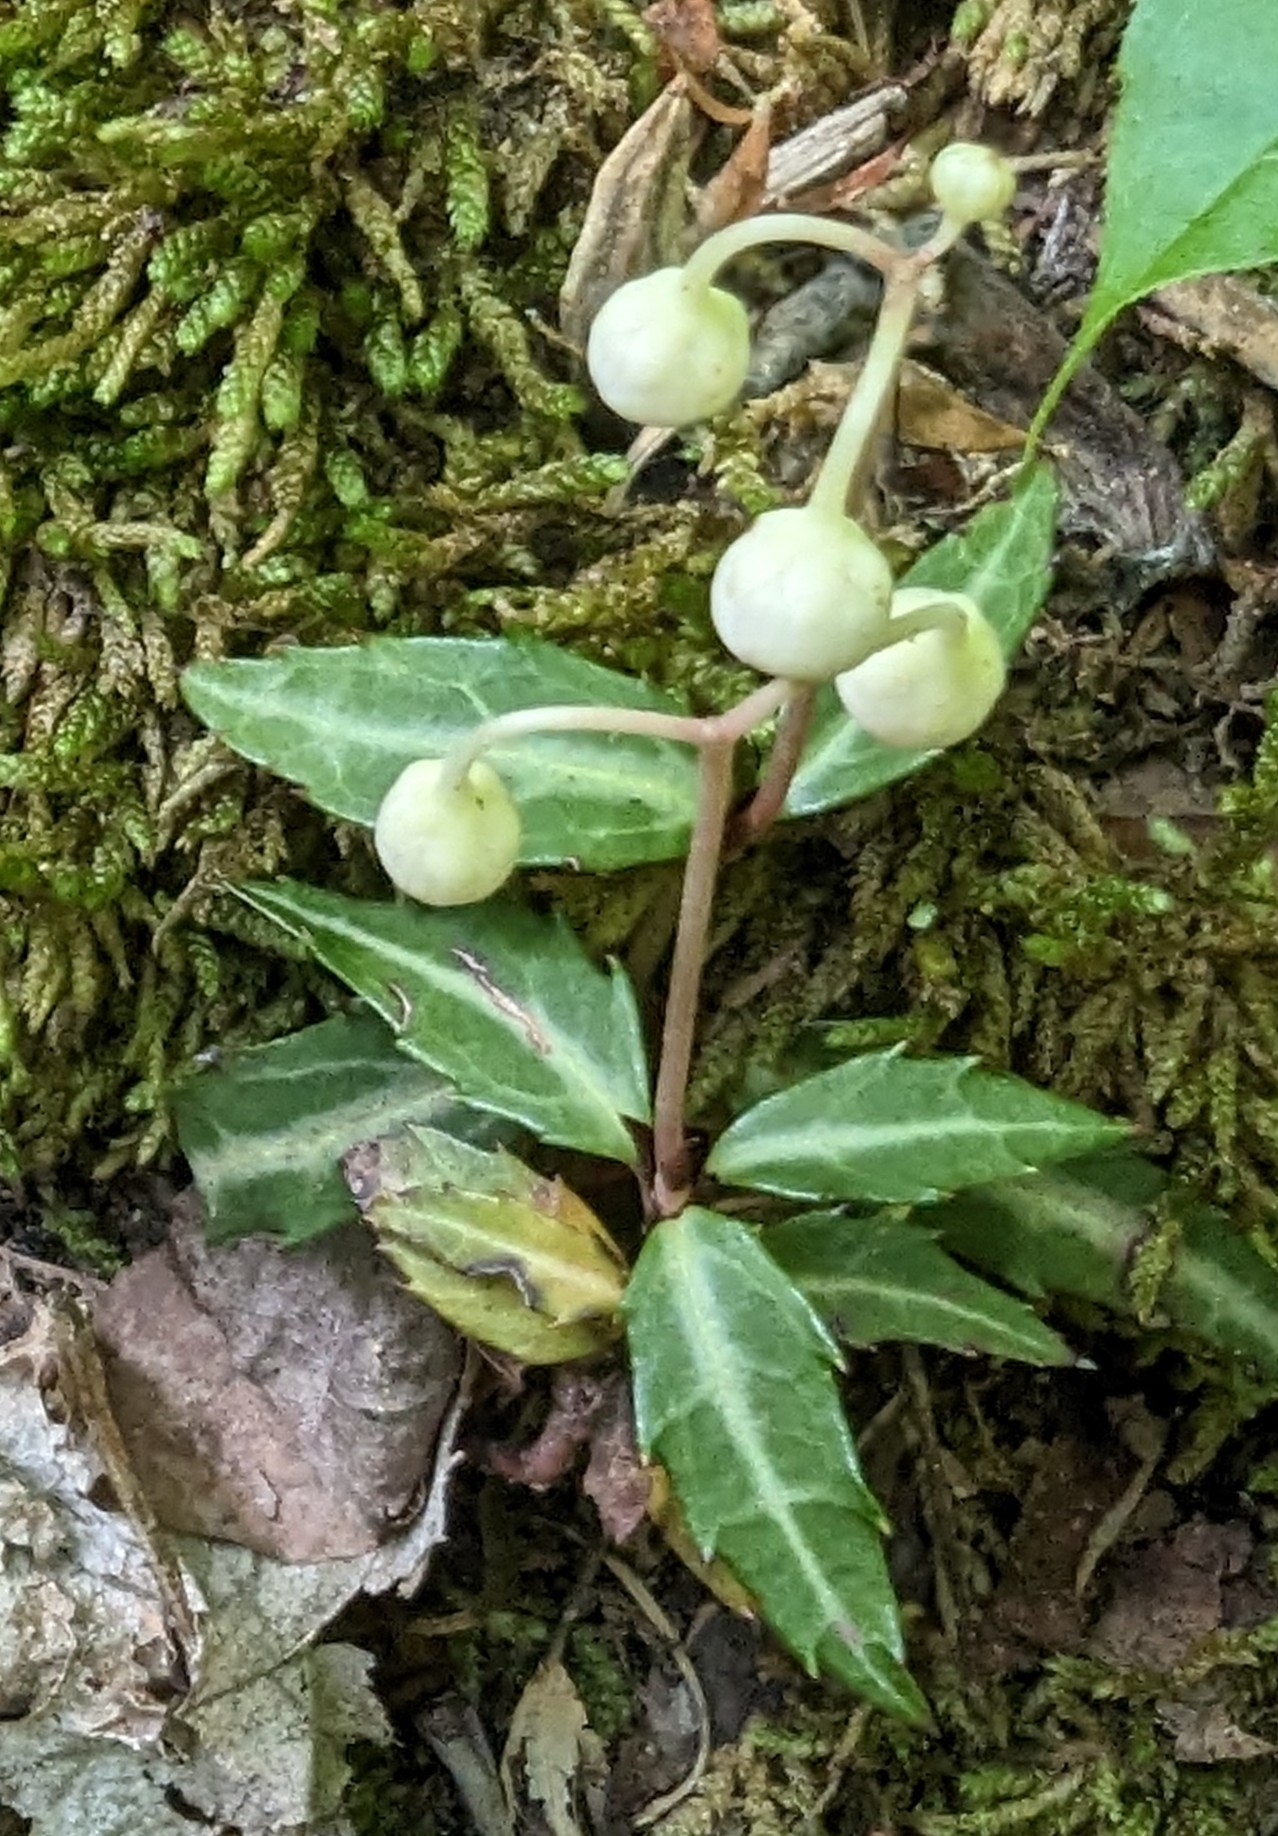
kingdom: Plantae
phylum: Tracheophyta
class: Magnoliopsida
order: Ericales
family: Ericaceae
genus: Chimaphila
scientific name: Chimaphila maculata
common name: Spotted pipsissewa
